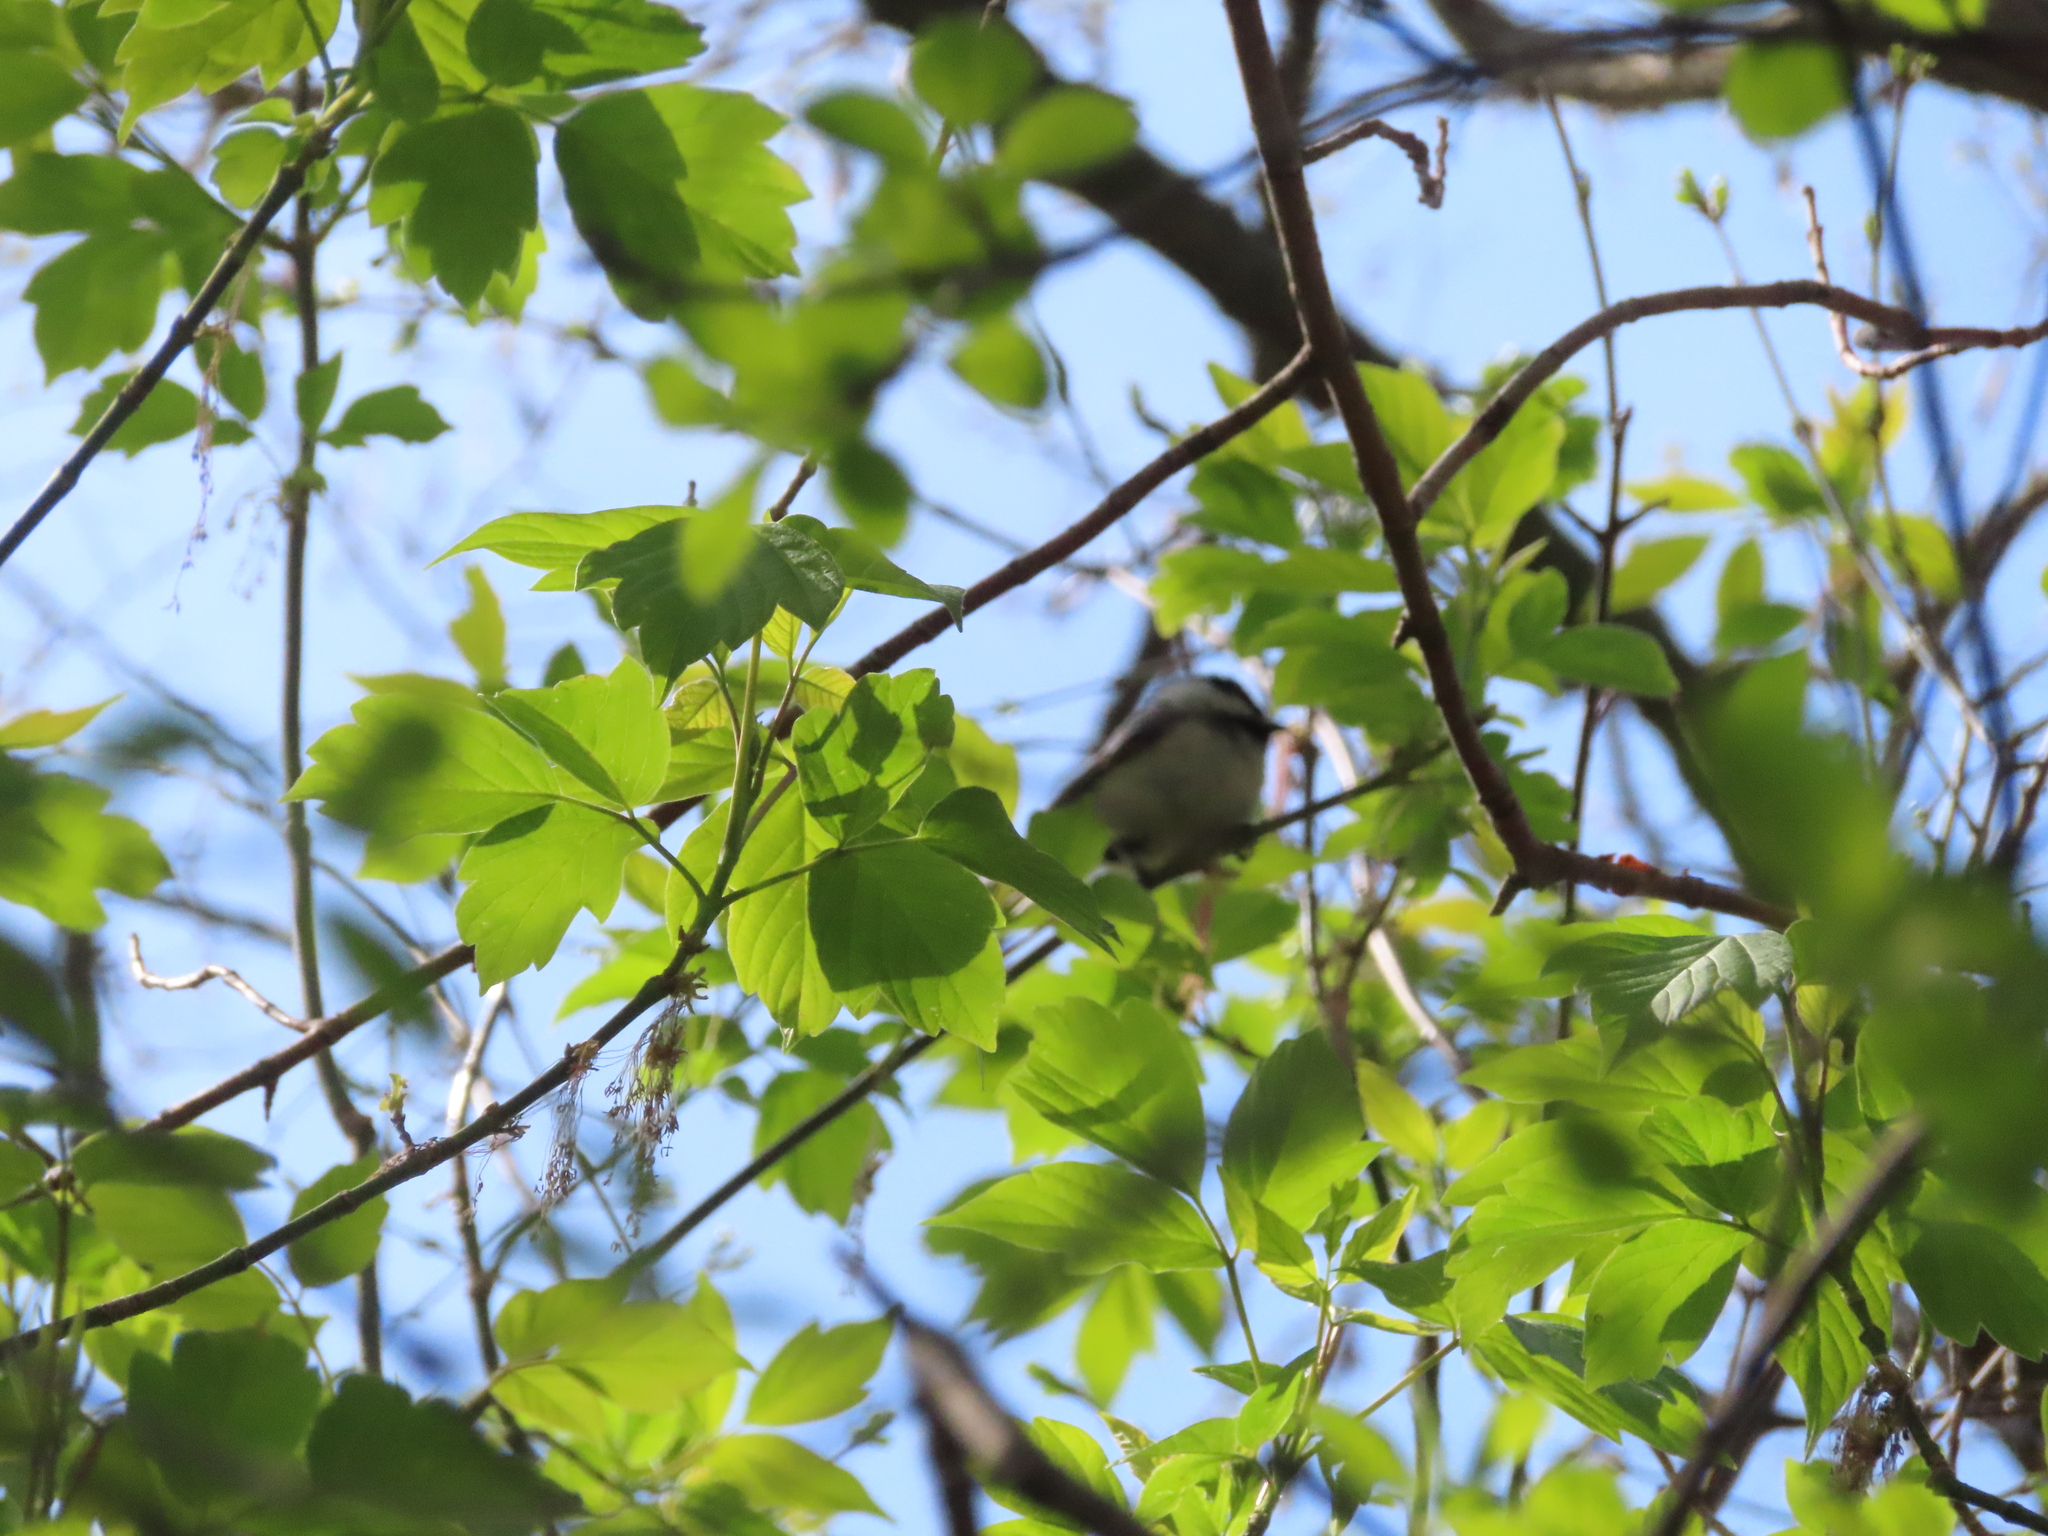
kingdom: Animalia
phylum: Chordata
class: Aves
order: Passeriformes
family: Paridae
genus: Poecile
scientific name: Poecile atricapillus
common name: Black-capped chickadee
